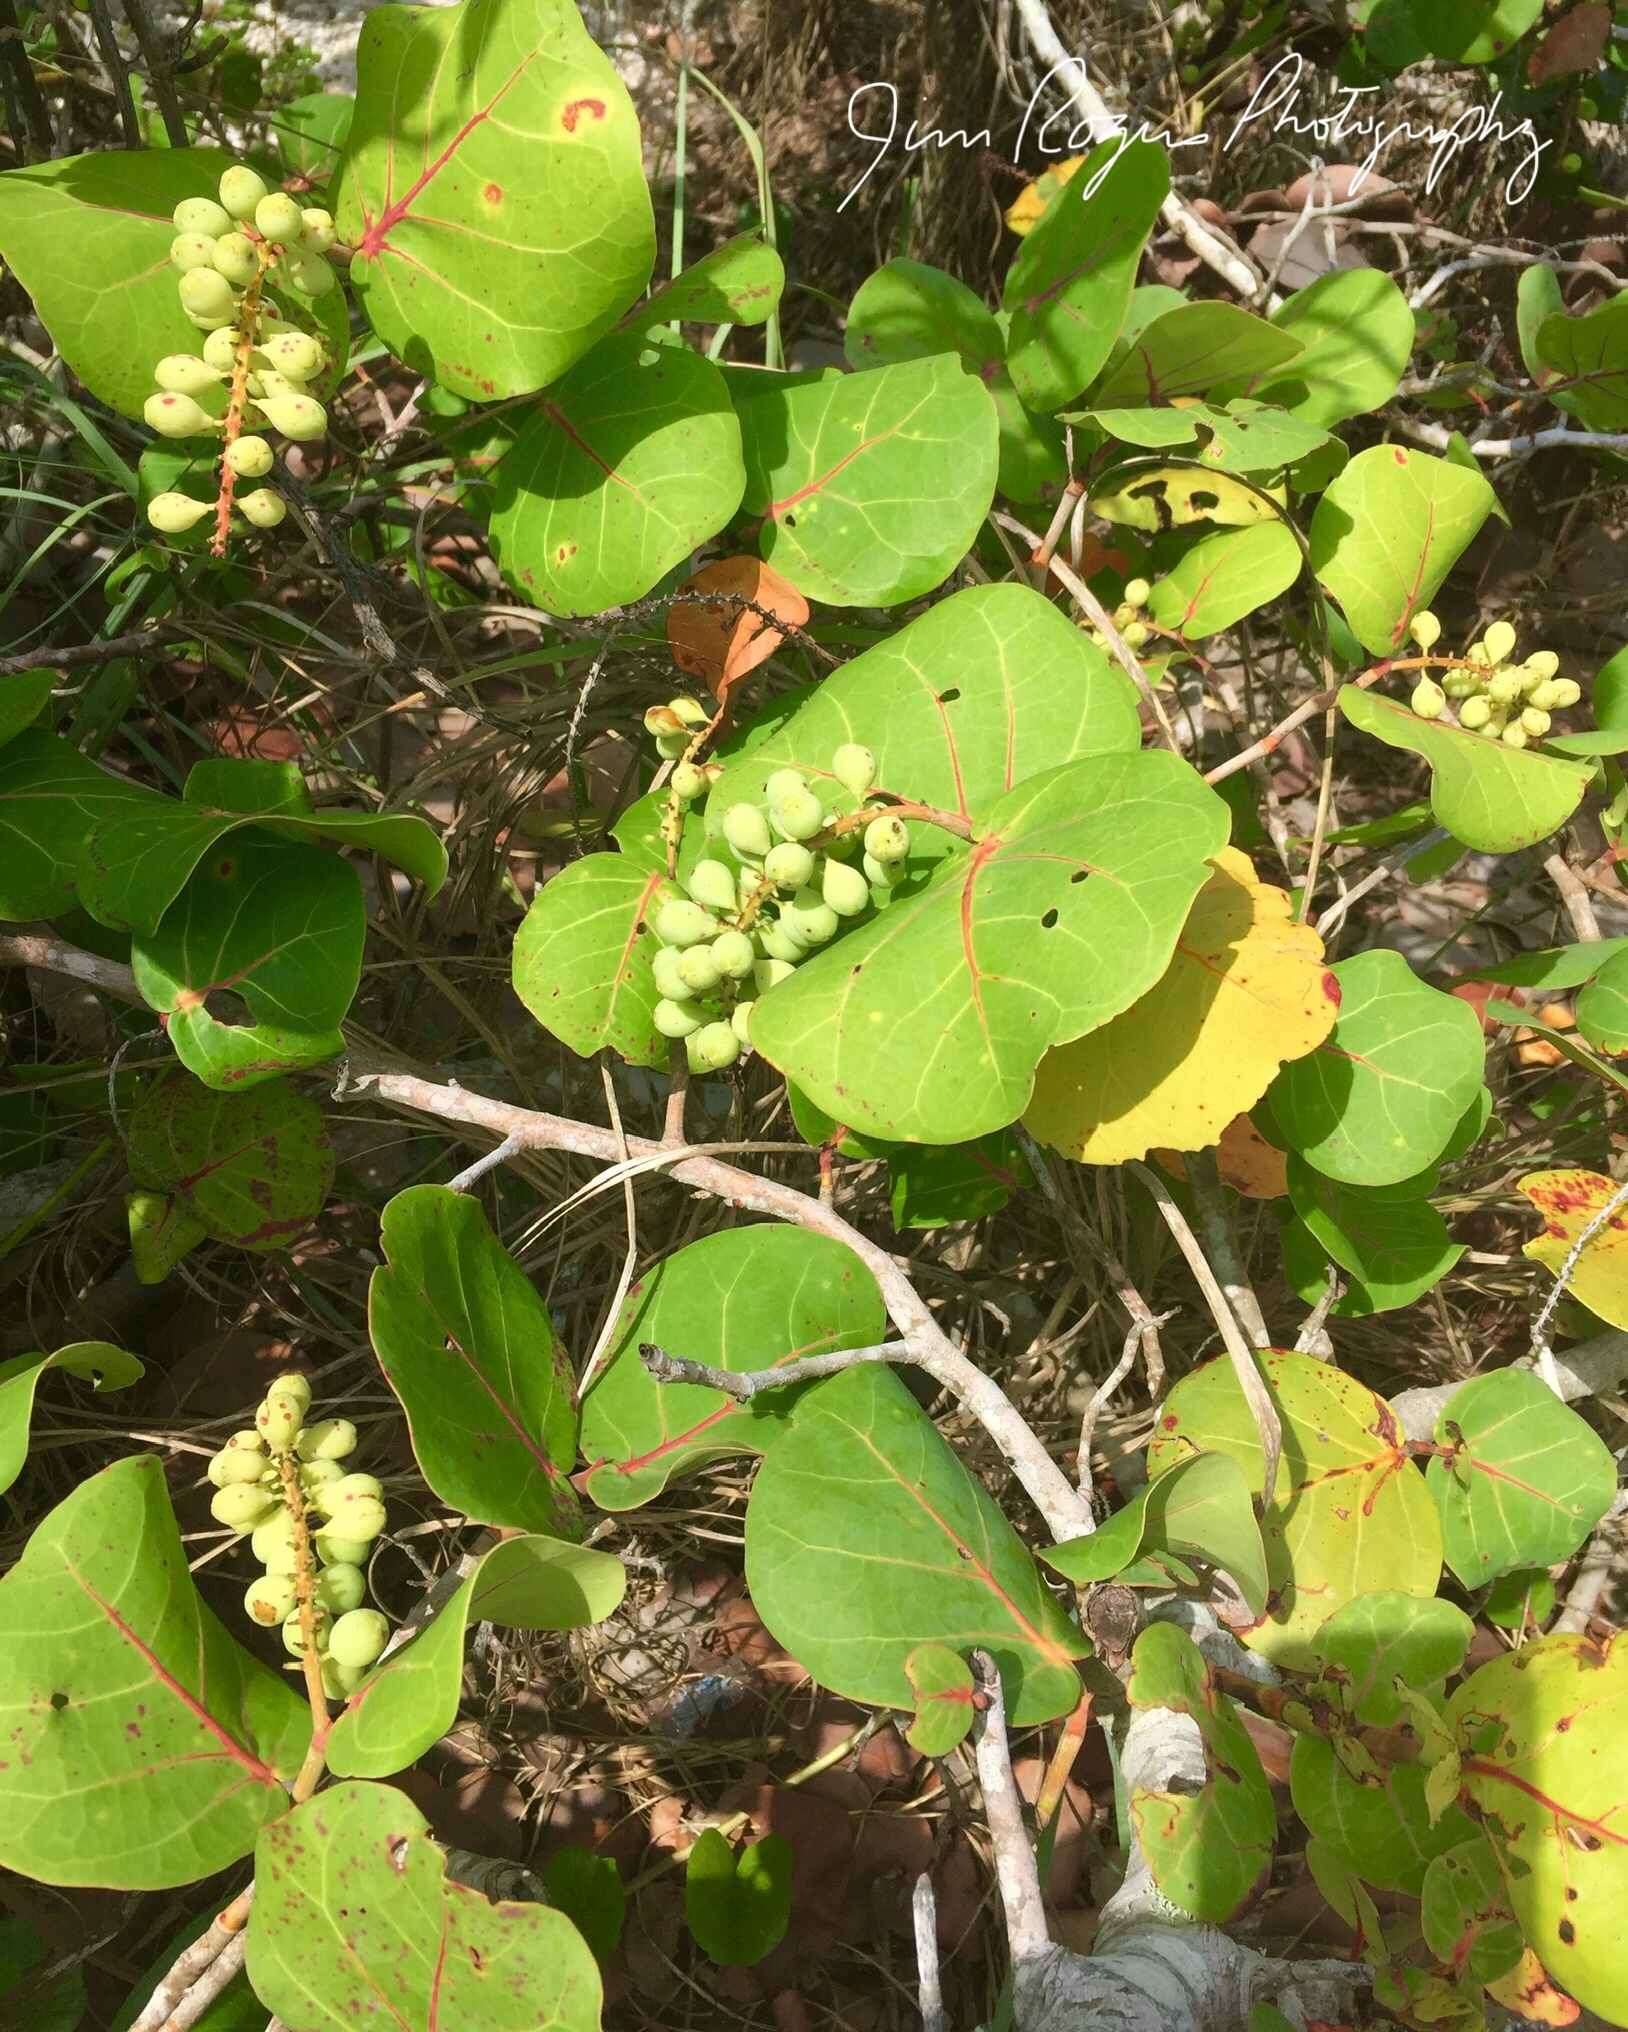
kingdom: Plantae
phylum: Tracheophyta
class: Magnoliopsida
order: Caryophyllales
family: Polygonaceae
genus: Coccoloba
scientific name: Coccoloba uvifera
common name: Seagrape
